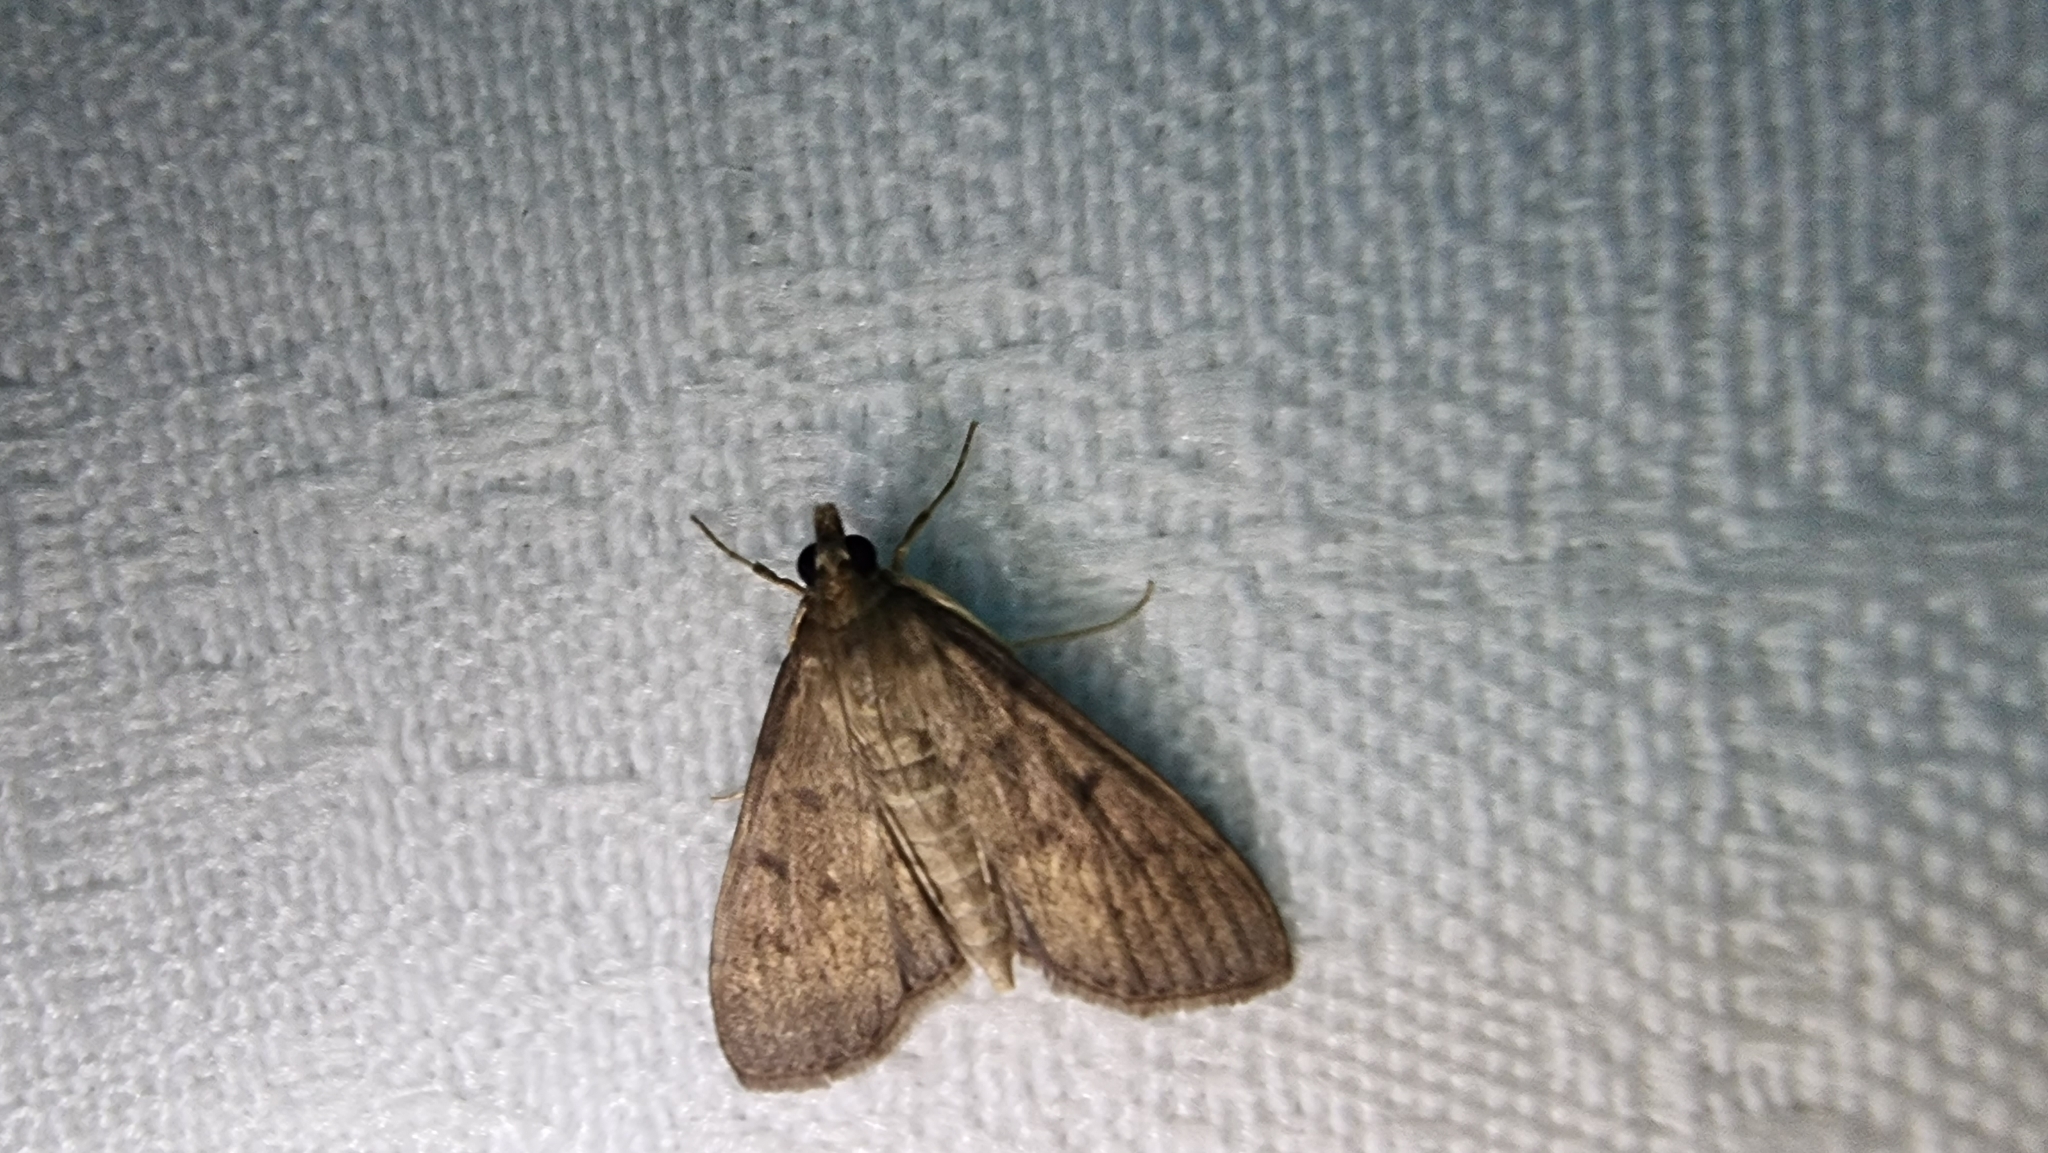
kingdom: Animalia
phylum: Arthropoda
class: Insecta
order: Lepidoptera
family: Crambidae
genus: Uresiphita
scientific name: Uresiphita ornithopteralis
